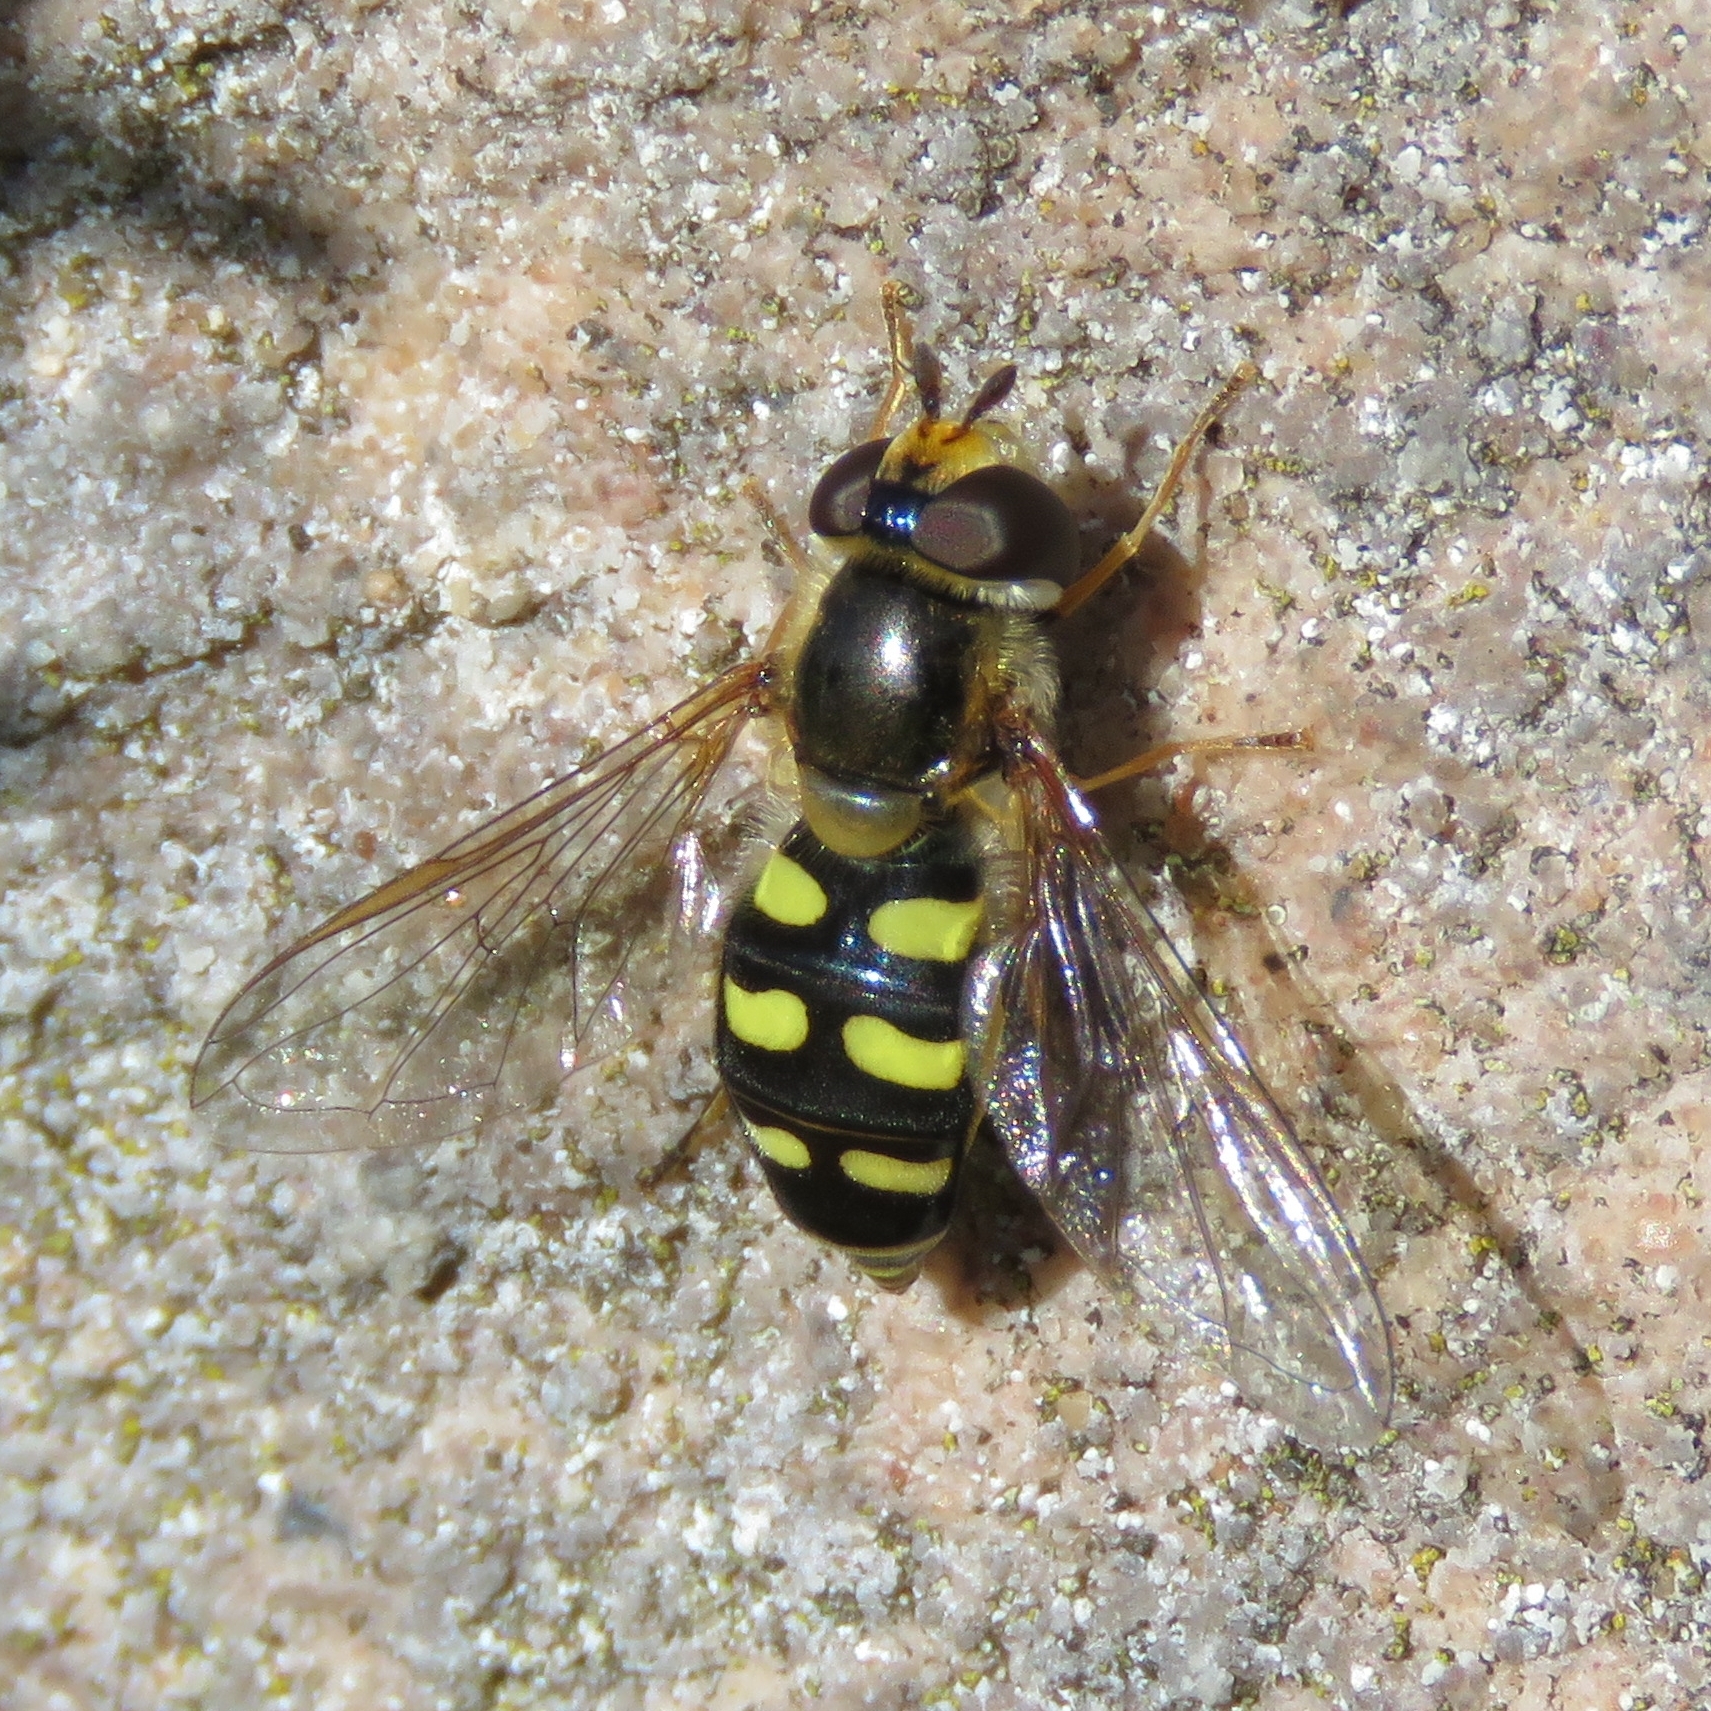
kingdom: Animalia
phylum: Arthropoda
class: Insecta
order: Diptera
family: Syrphidae
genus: Eupeodes
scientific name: Eupeodes luniger
